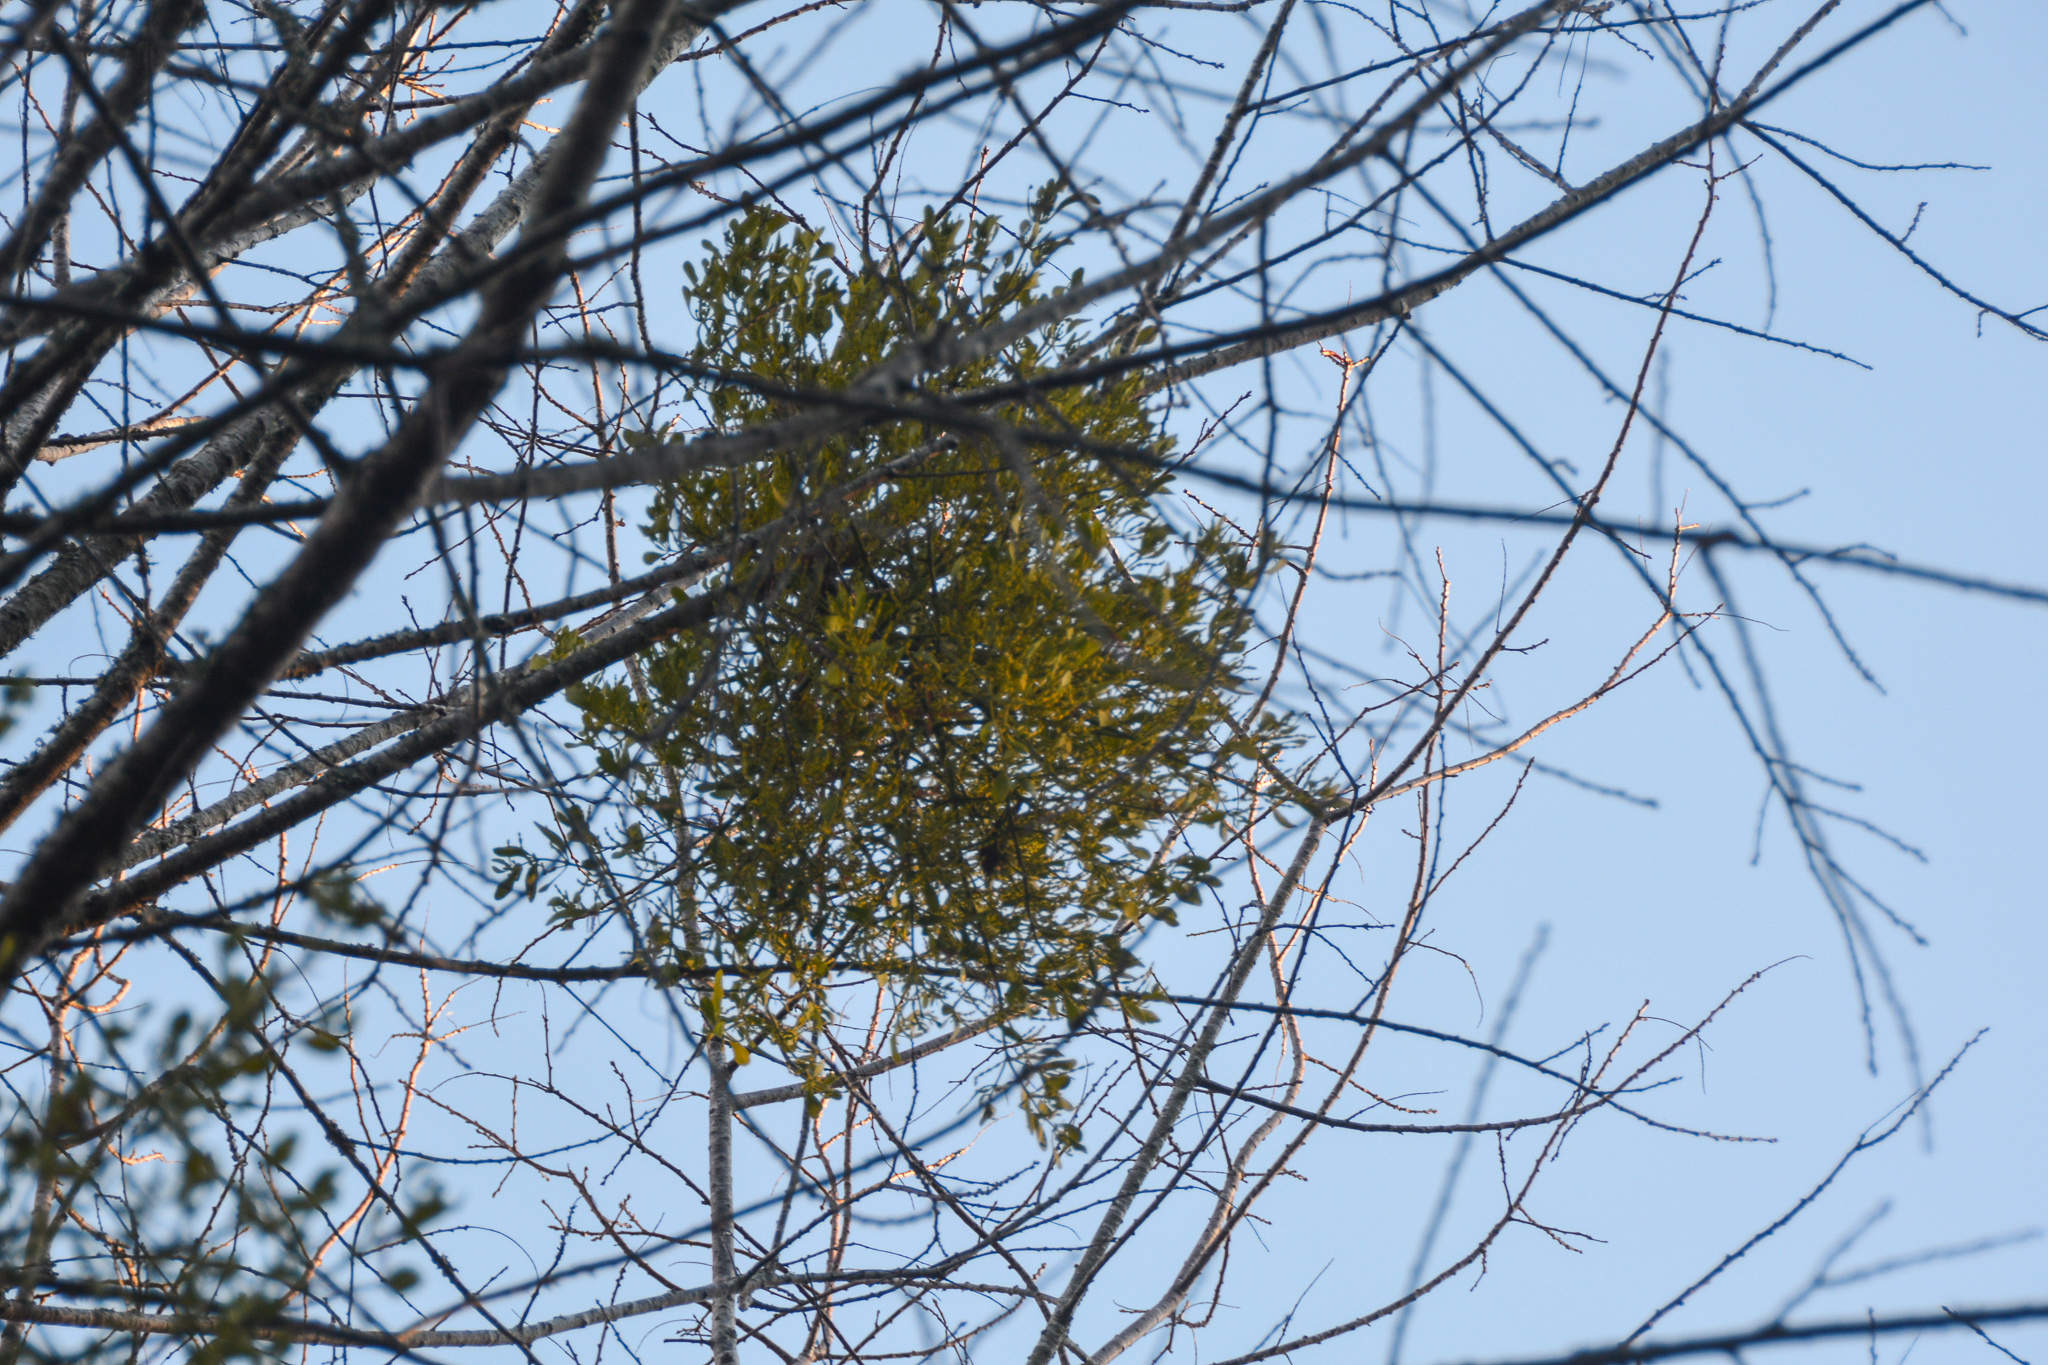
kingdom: Plantae
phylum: Tracheophyta
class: Magnoliopsida
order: Santalales
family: Viscaceae
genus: Phoradendron
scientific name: Phoradendron leucarpum
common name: Pacific mistletoe
